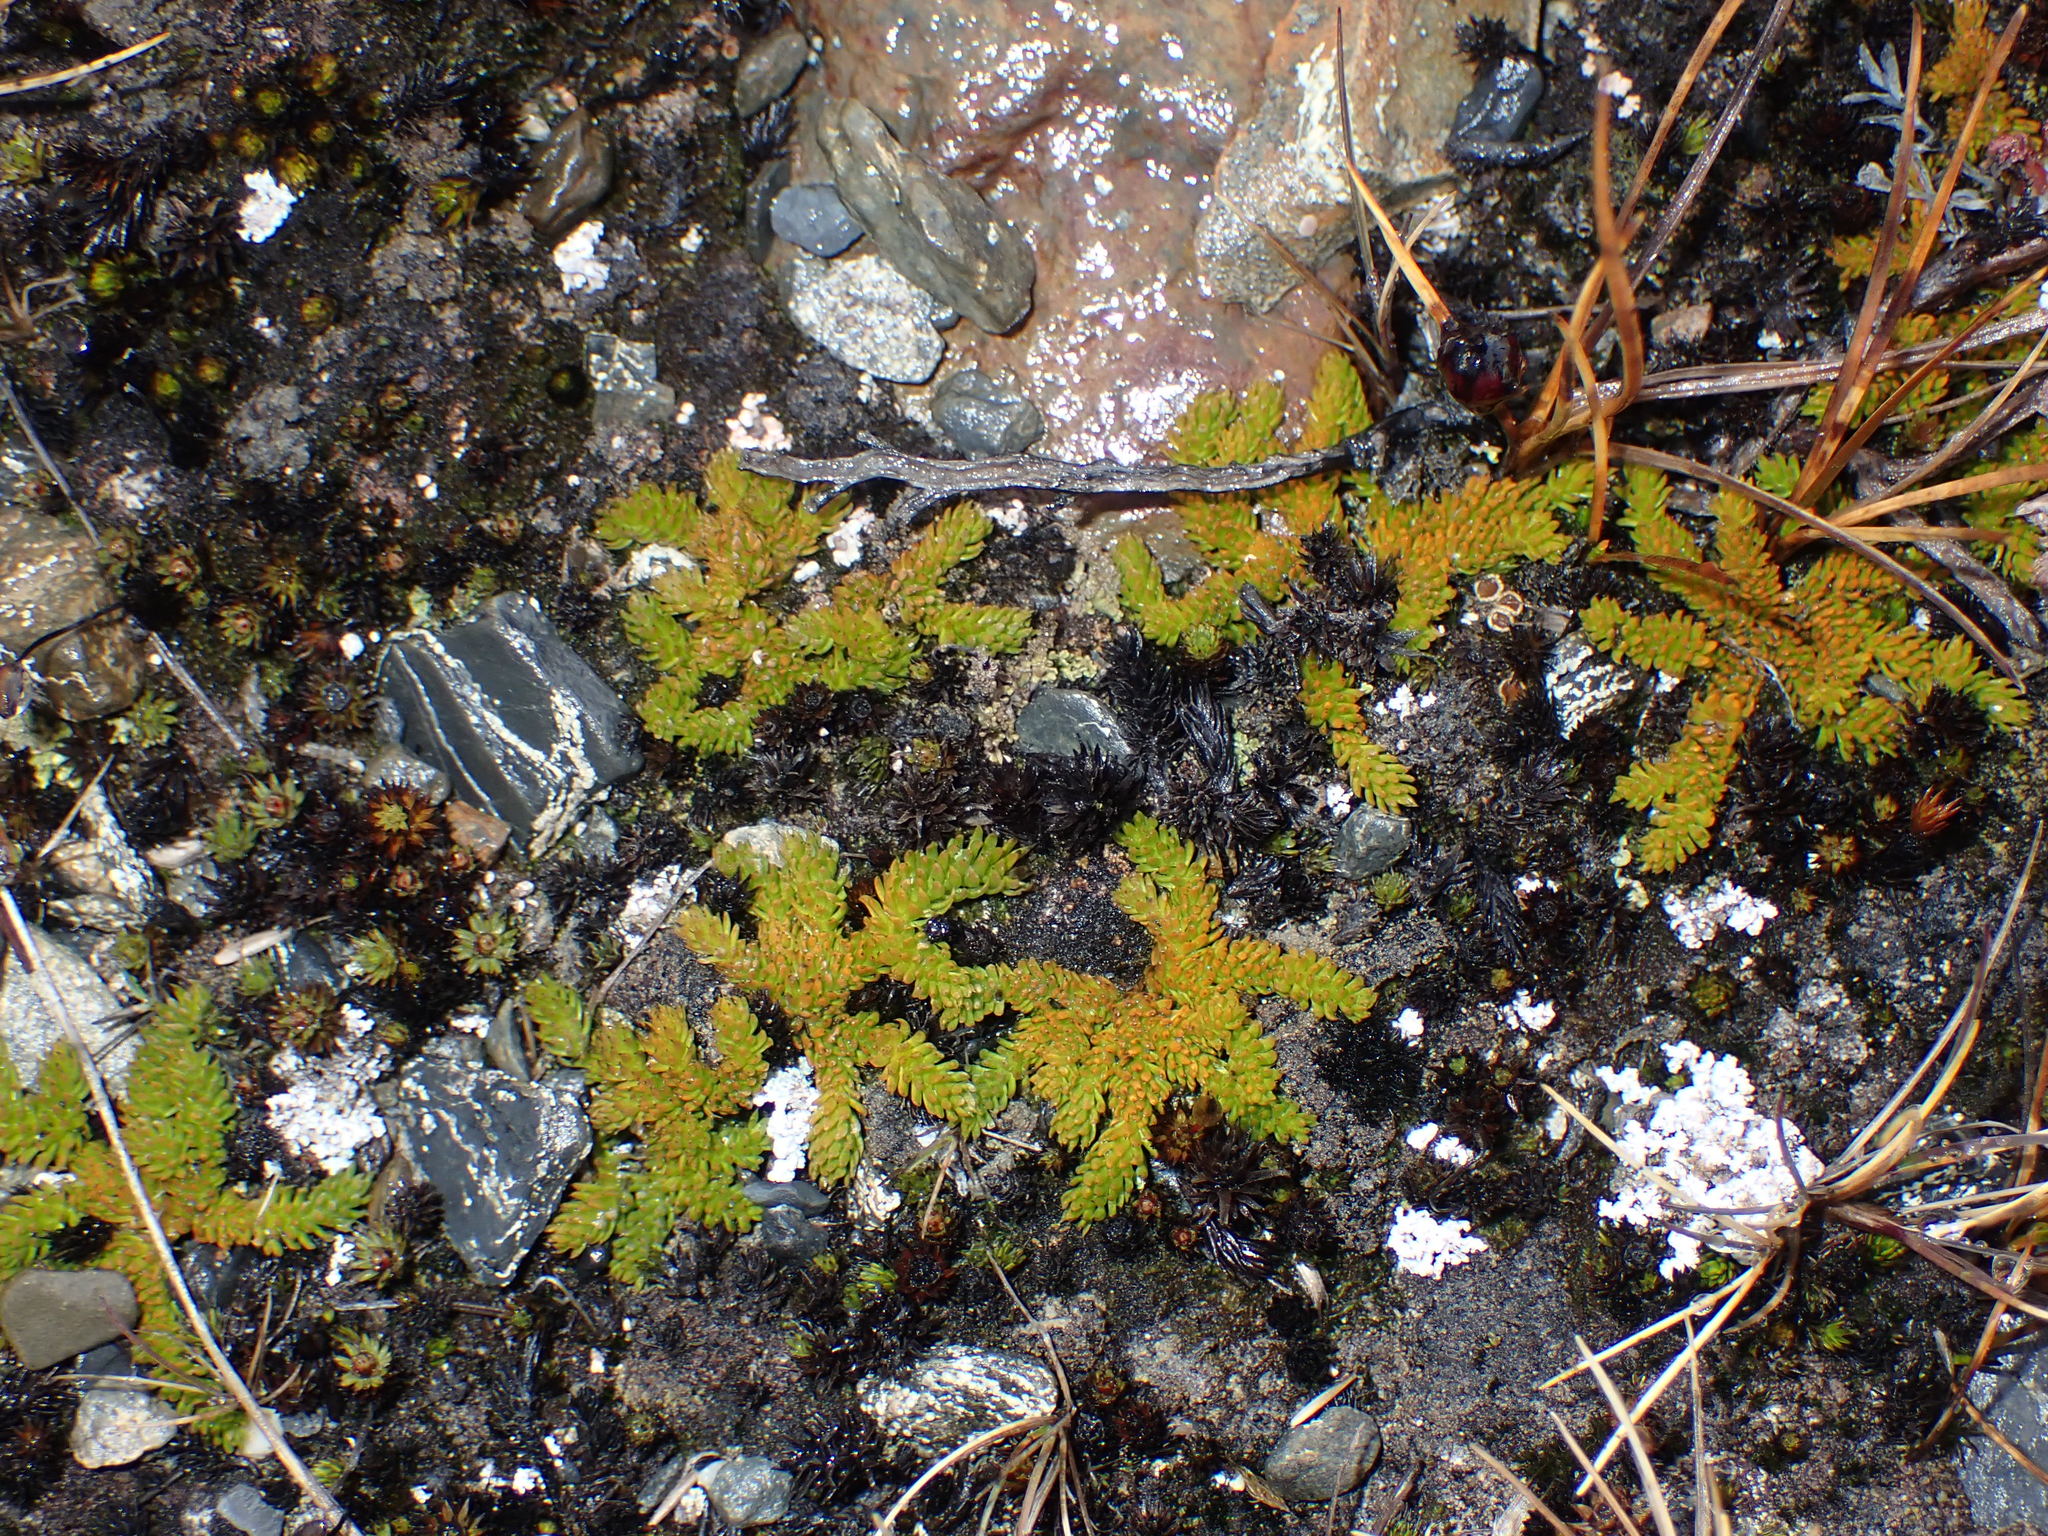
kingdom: Plantae
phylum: Tracheophyta
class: Lycopodiopsida
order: Lycopodiales
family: Lycopodiaceae
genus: Austrolycopodium
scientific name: Austrolycopodium magellanicum
